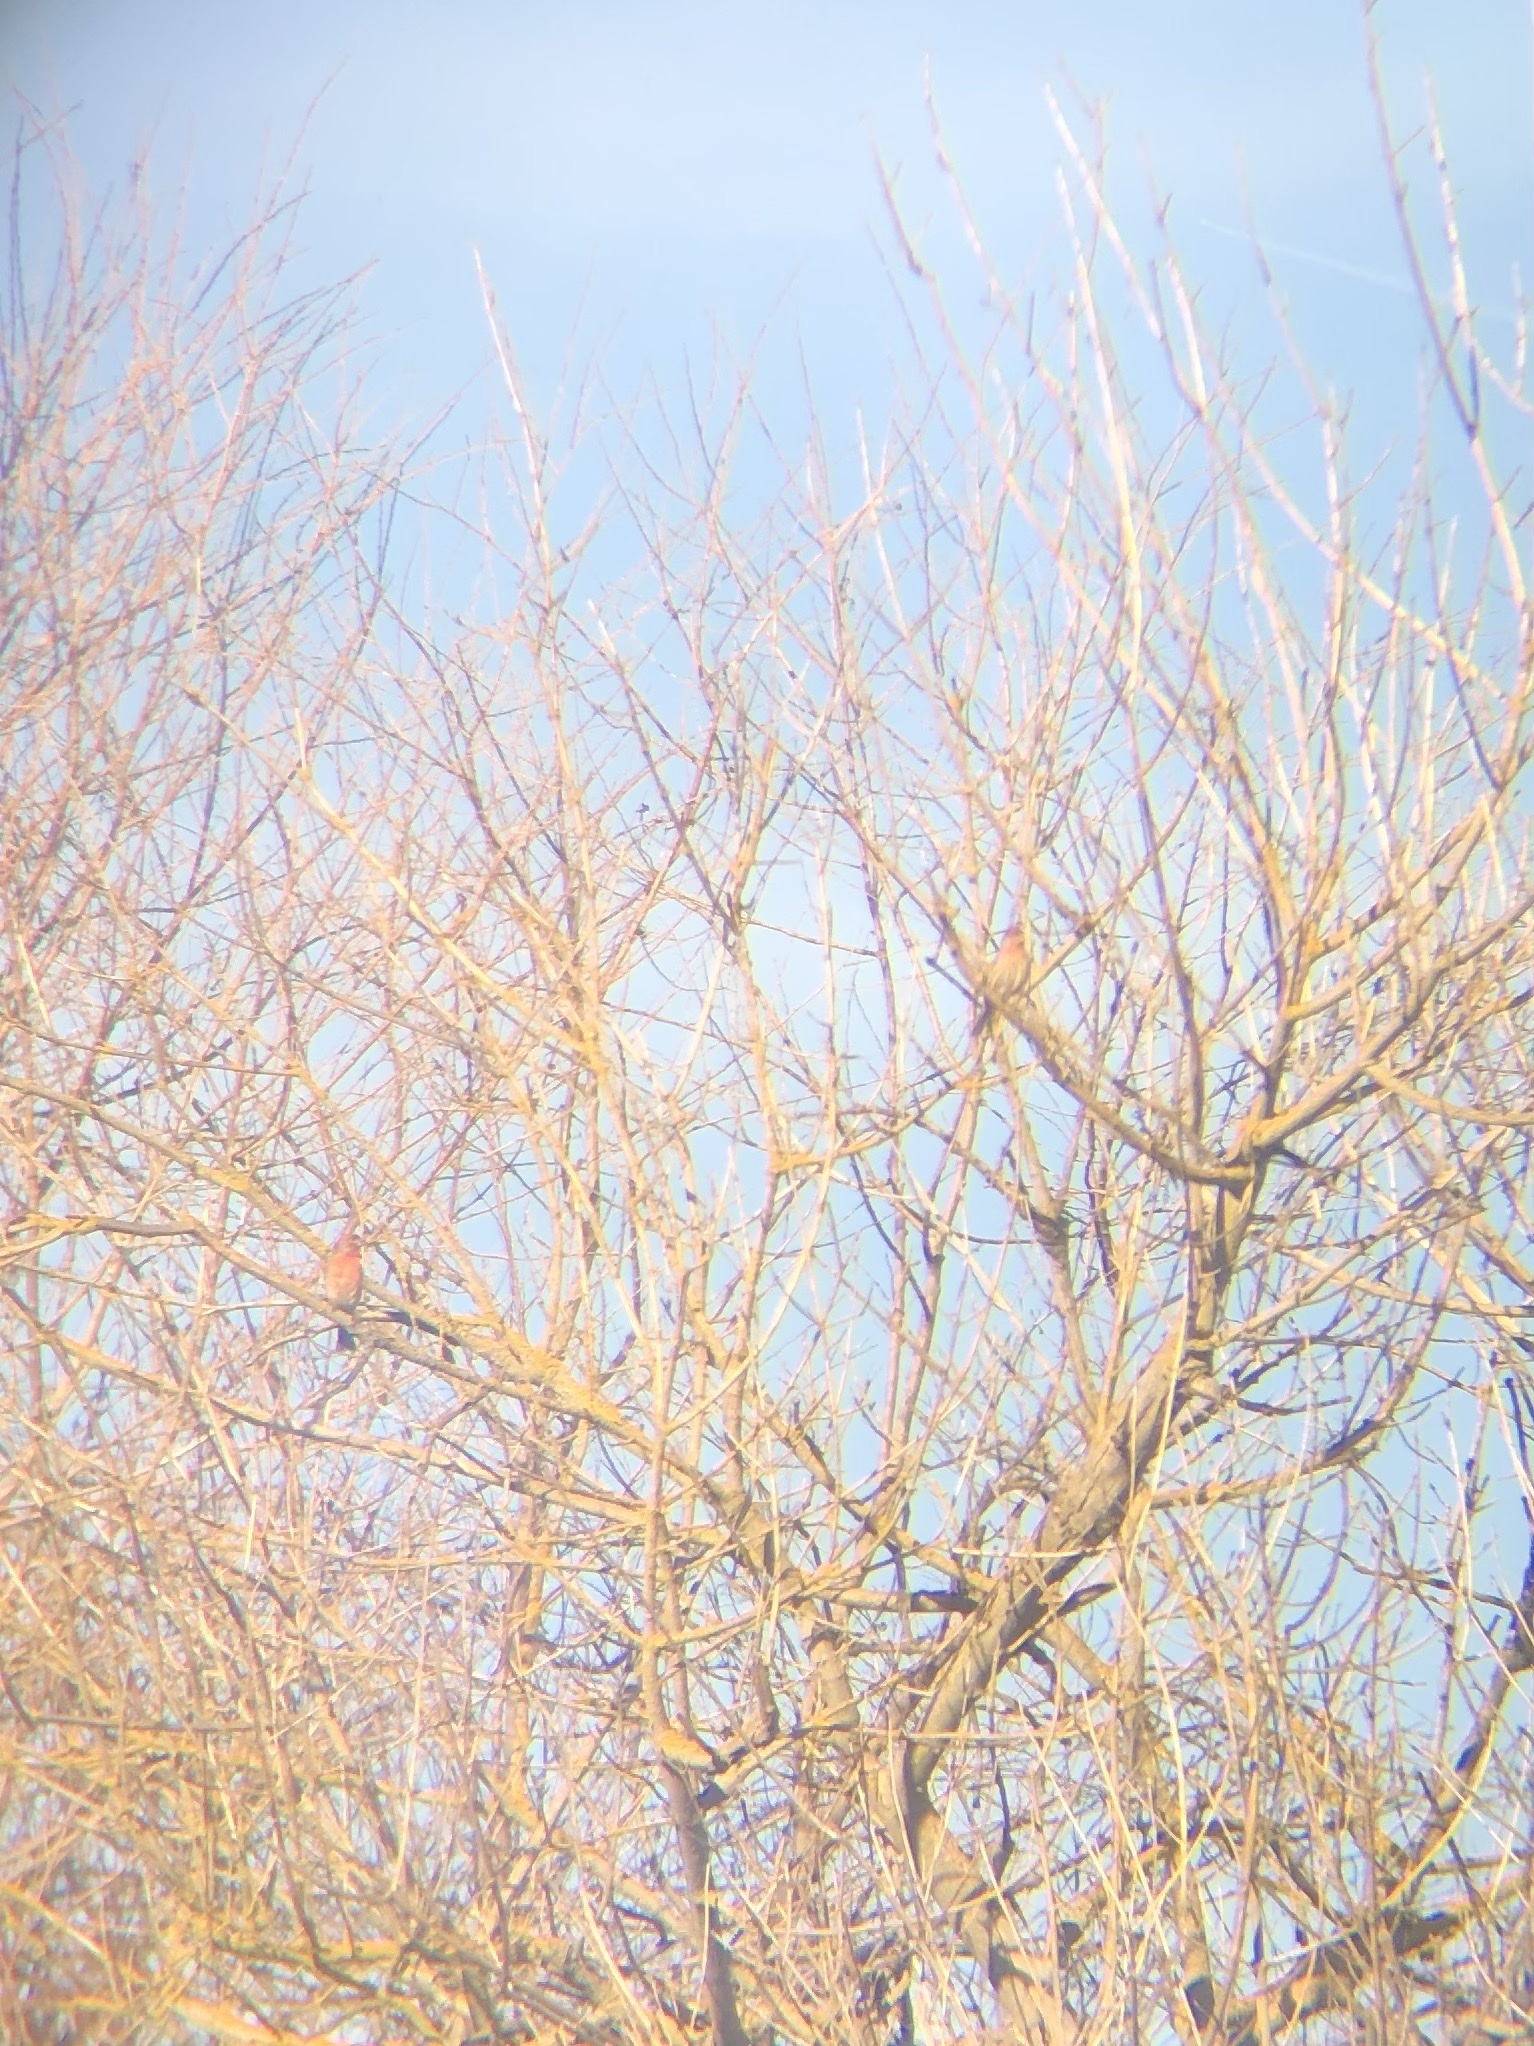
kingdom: Animalia
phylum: Chordata
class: Aves
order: Passeriformes
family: Fringillidae
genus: Haemorhous
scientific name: Haemorhous mexicanus
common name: House finch
